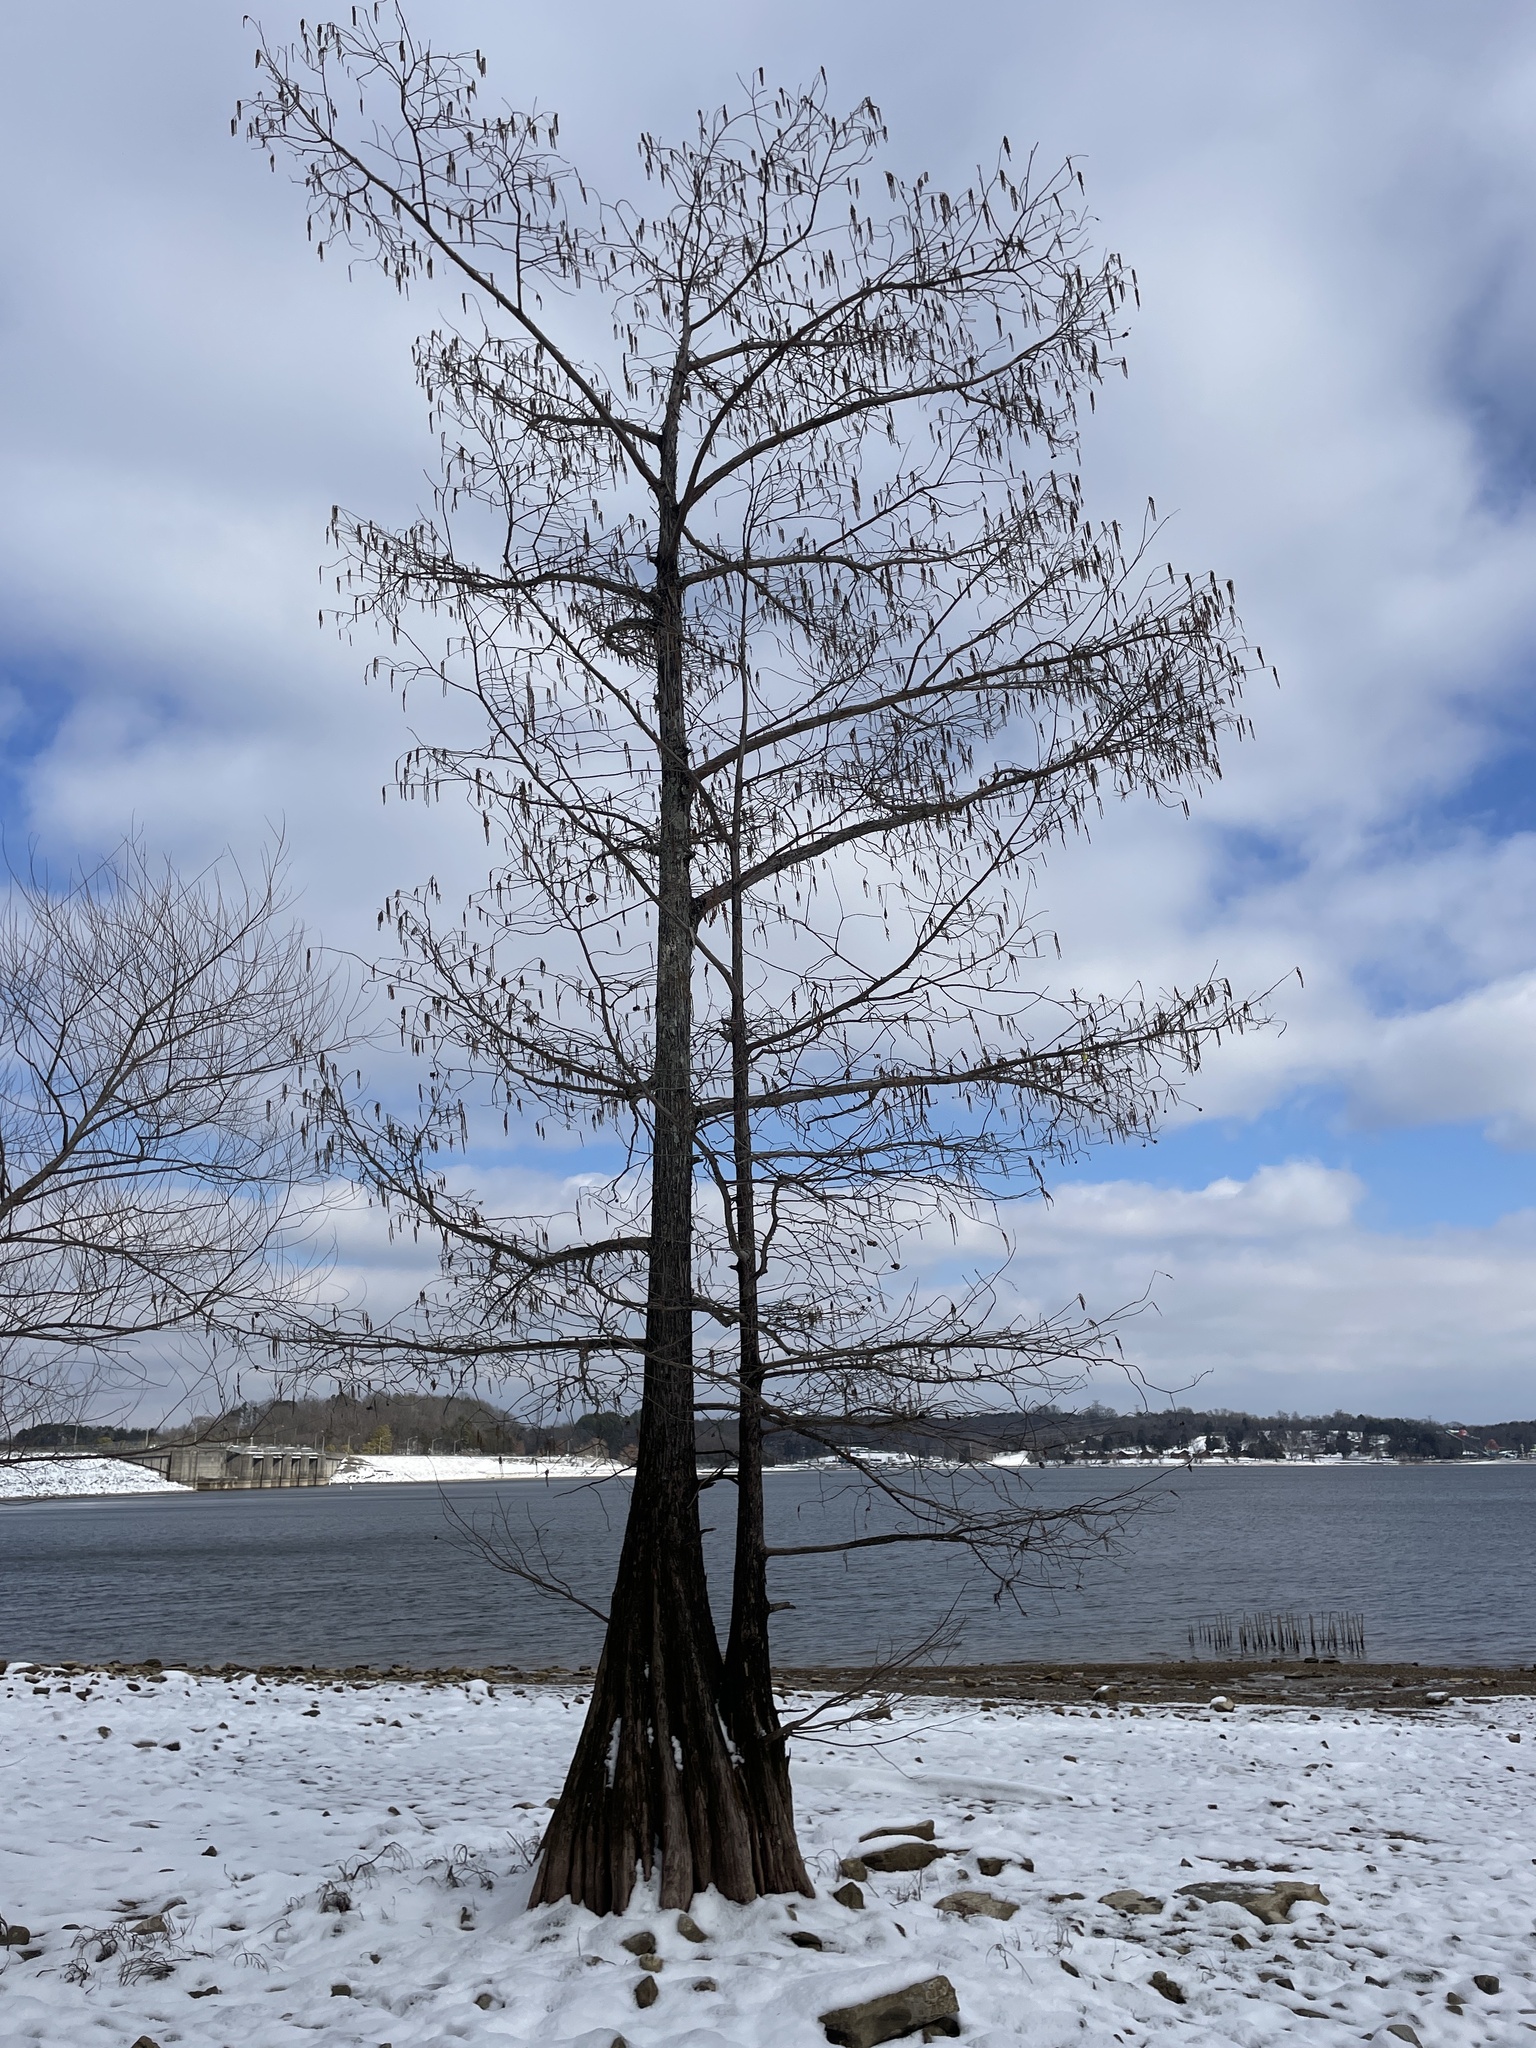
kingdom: Plantae
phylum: Tracheophyta
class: Pinopsida
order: Pinales
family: Cupressaceae
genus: Taxodium
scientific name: Taxodium distichum
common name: Bald cypress
